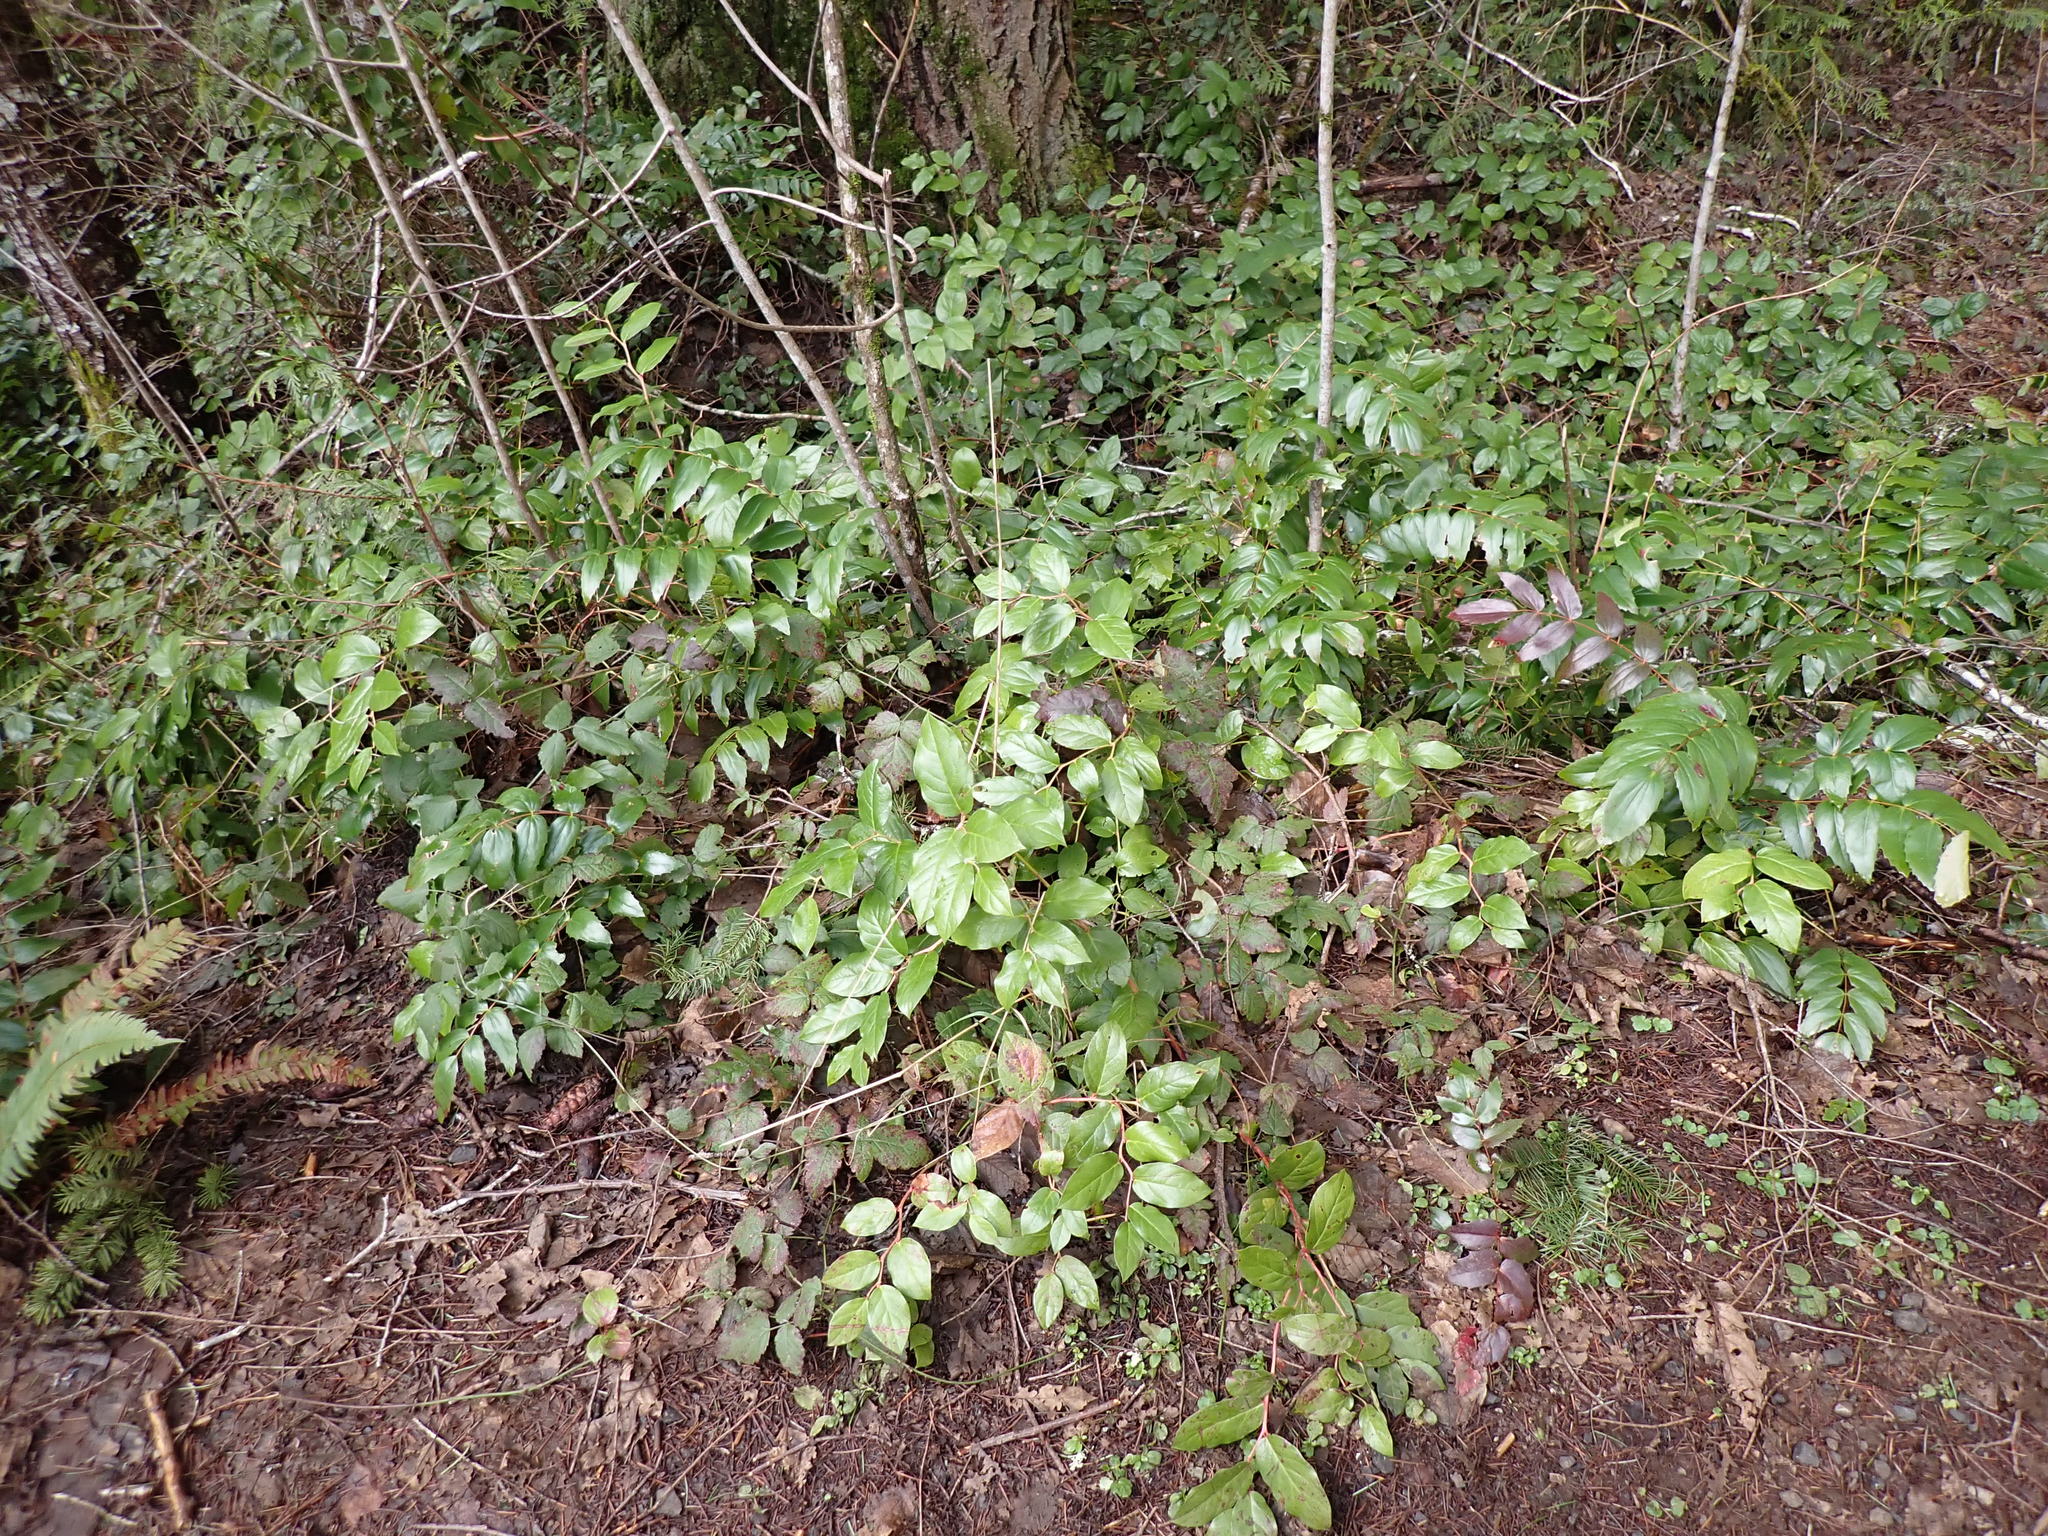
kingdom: Plantae
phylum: Tracheophyta
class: Magnoliopsida
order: Ericales
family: Ericaceae
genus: Gaultheria
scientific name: Gaultheria shallon
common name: Shallon
